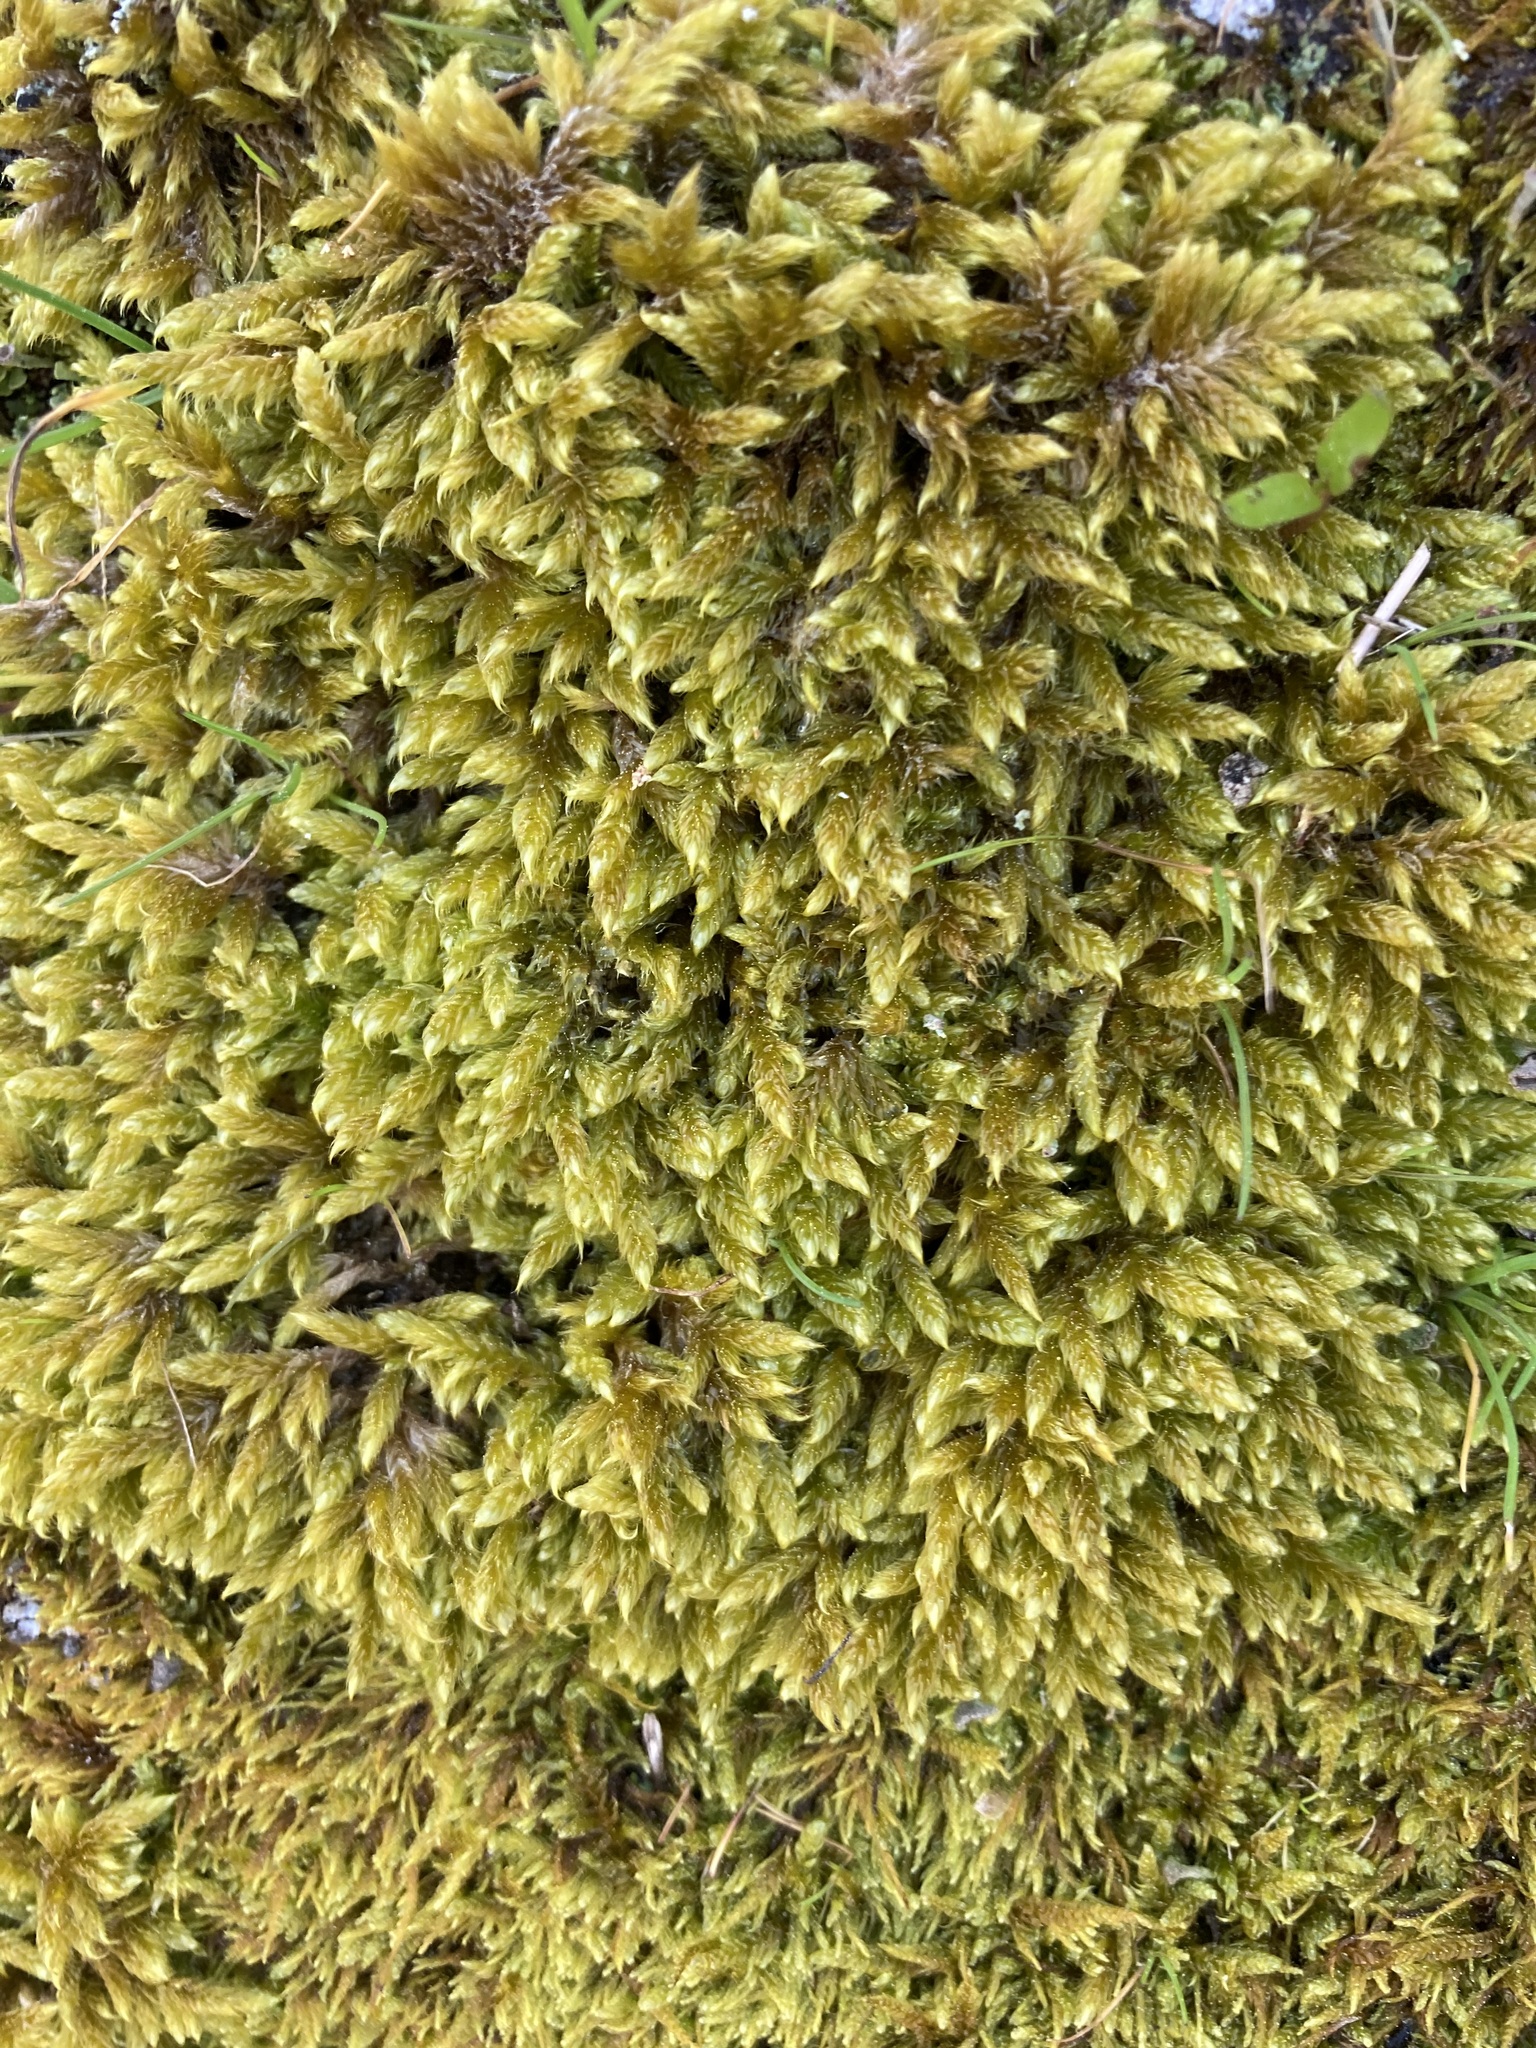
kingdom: Plantae
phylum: Bryophyta
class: Bryopsida
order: Hypnales
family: Hypnaceae
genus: Hypnum
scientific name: Hypnum cupressiforme
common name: Cypress-leaved plait-moss
